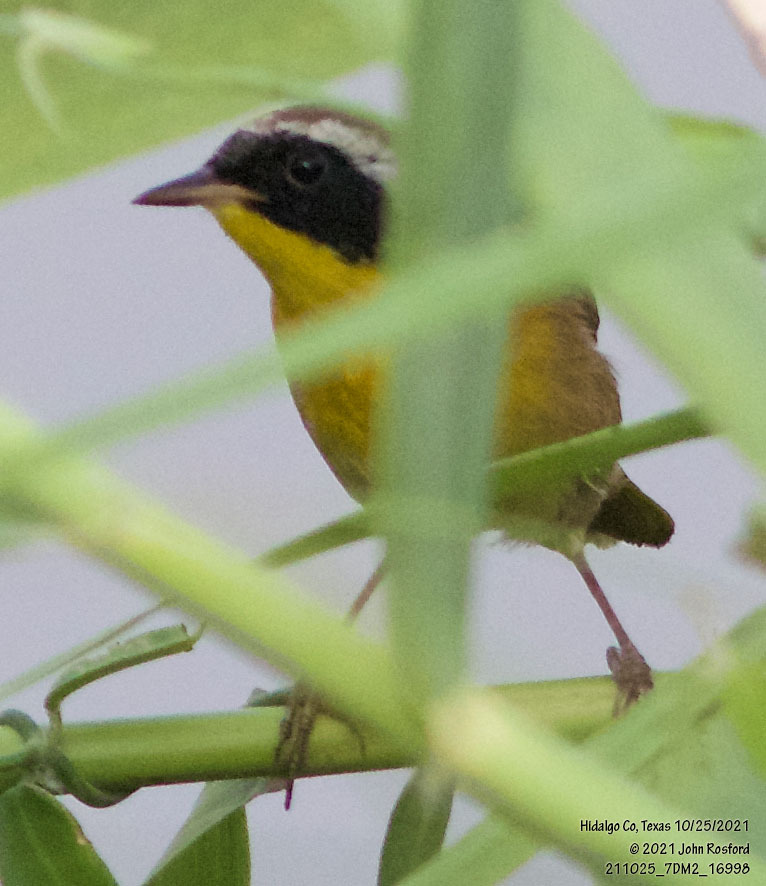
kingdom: Animalia
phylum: Chordata
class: Aves
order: Passeriformes
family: Parulidae
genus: Geothlypis
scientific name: Geothlypis trichas
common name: Common yellowthroat
